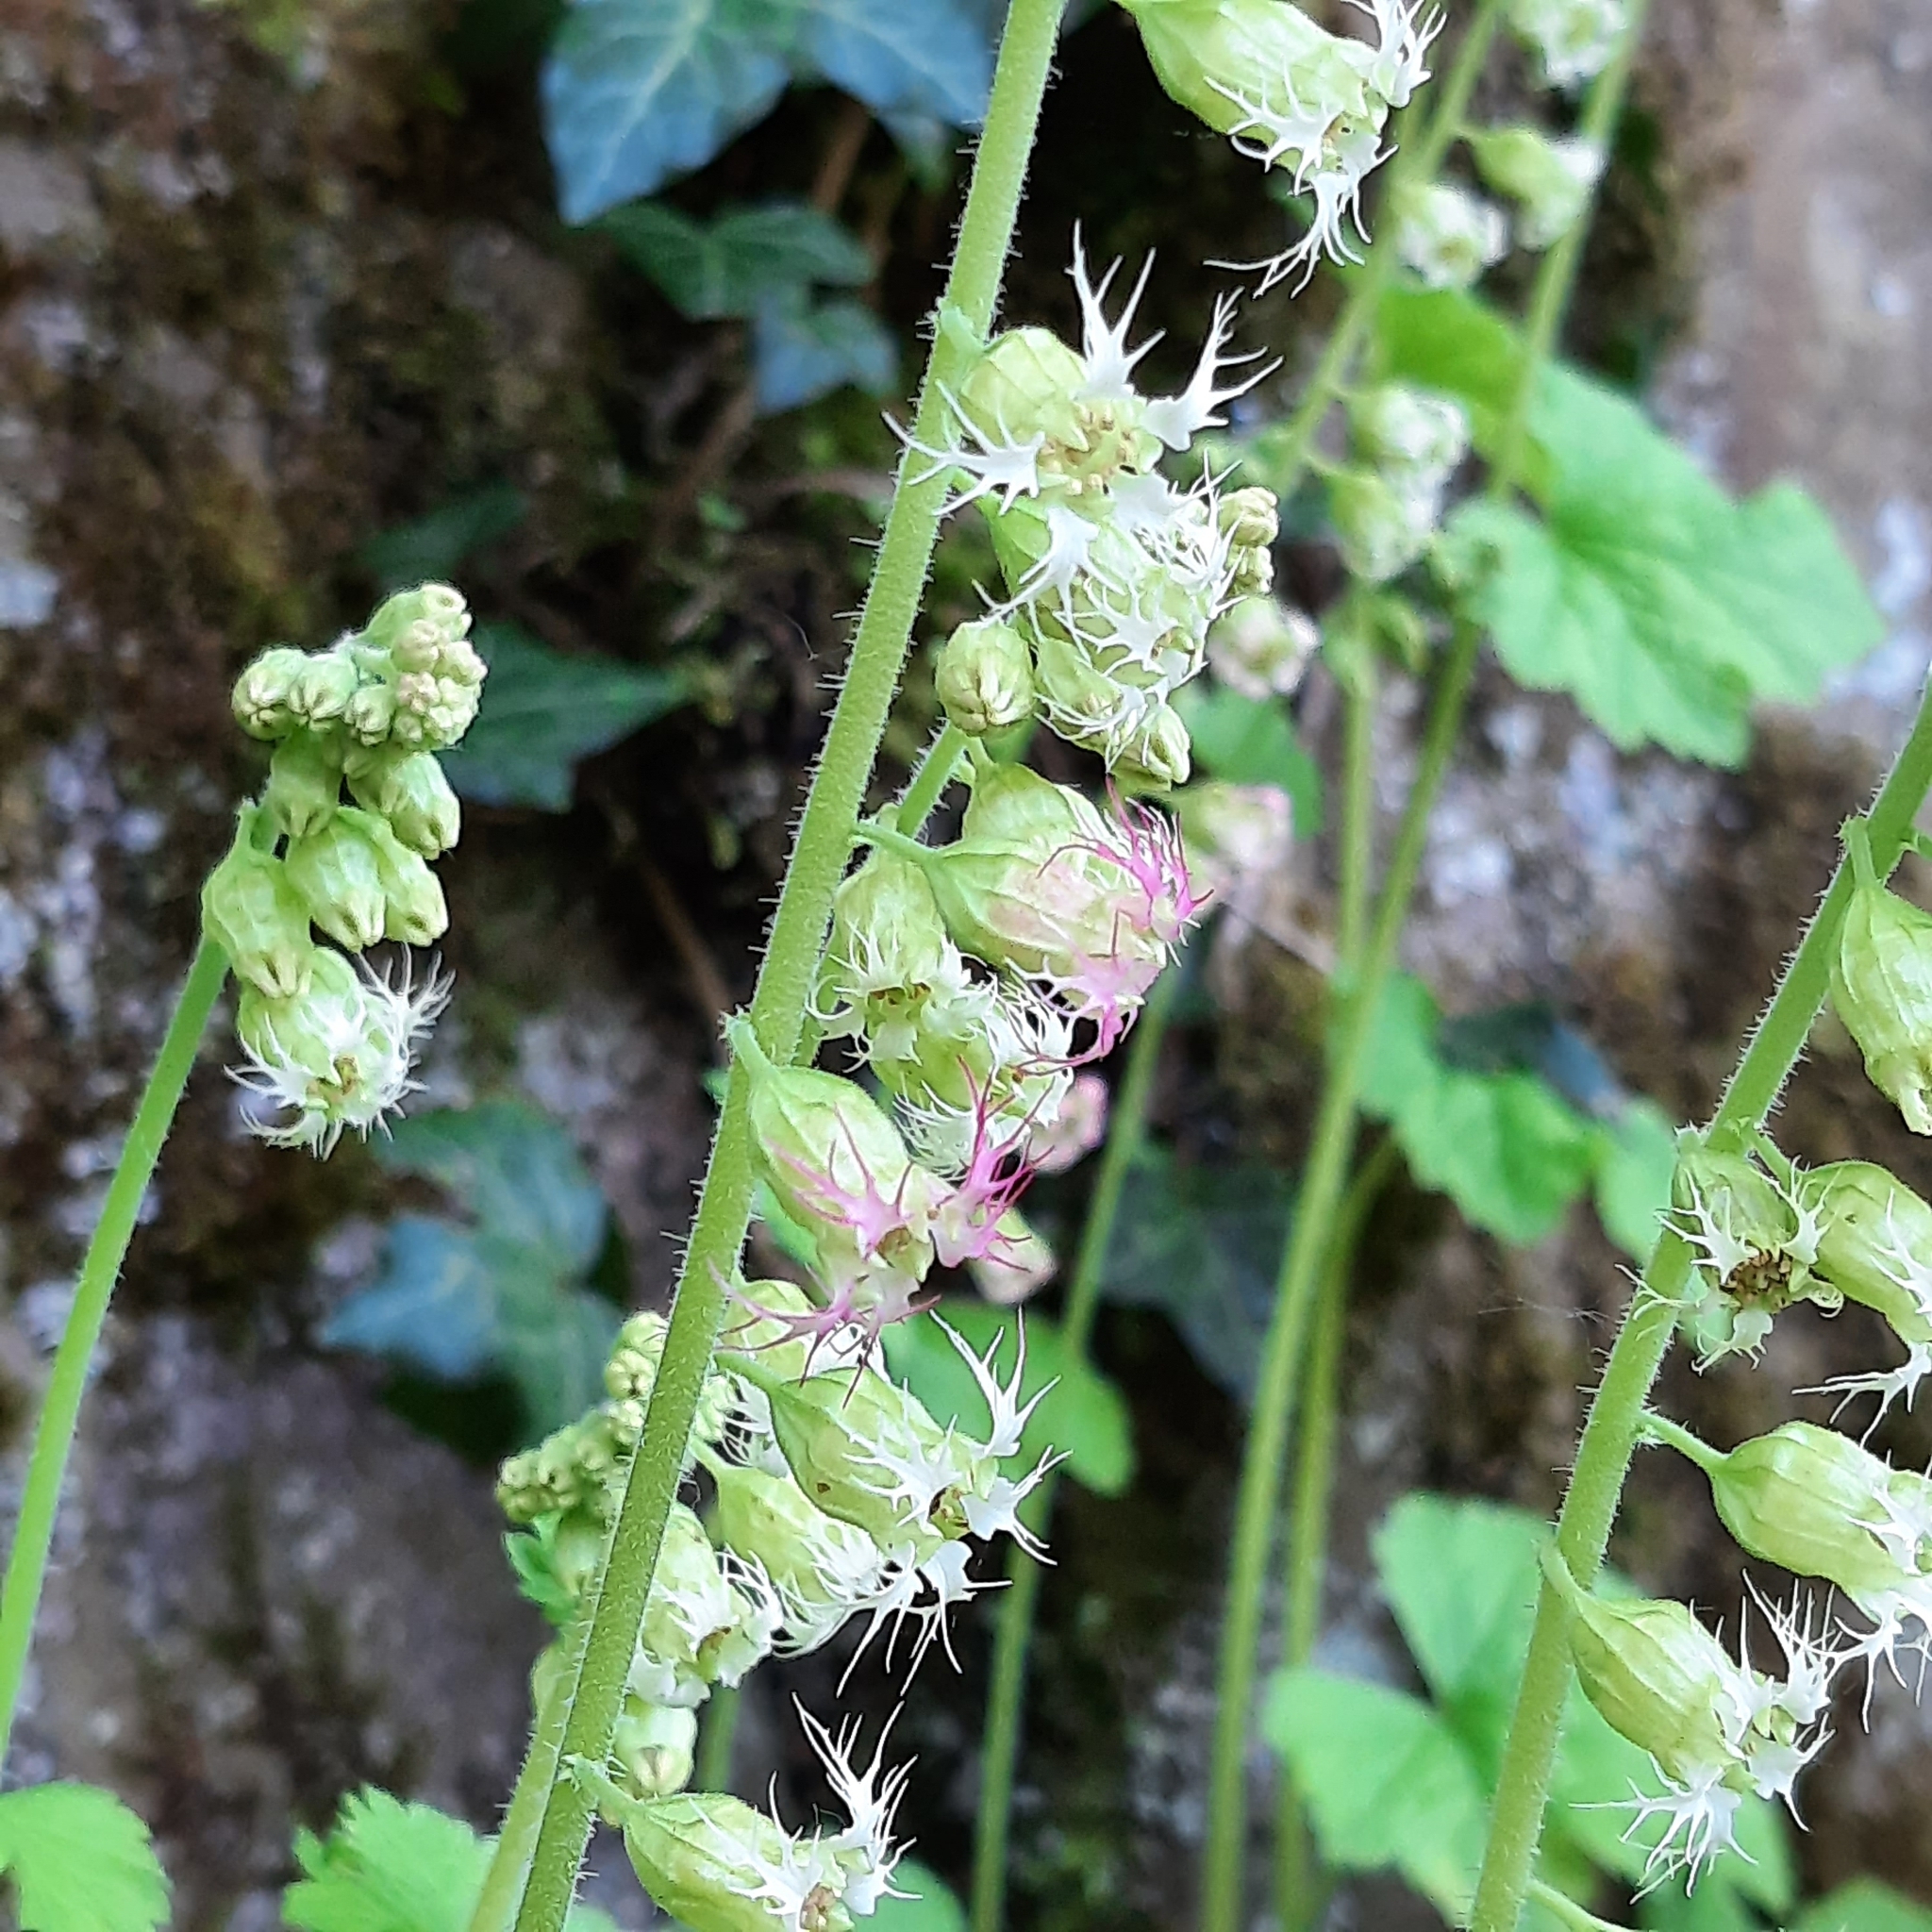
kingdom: Plantae
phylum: Tracheophyta
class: Magnoliopsida
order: Saxifragales
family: Saxifragaceae
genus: Tellima
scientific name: Tellima grandiflora
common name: Fringecups
